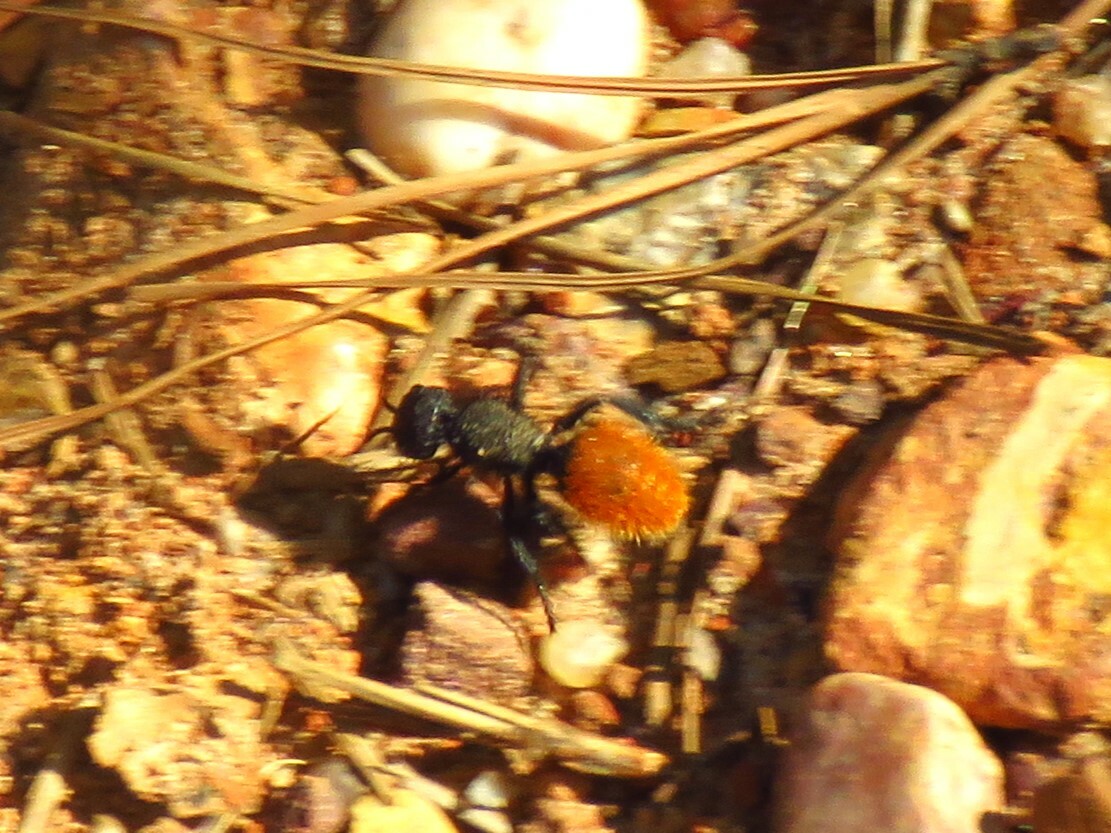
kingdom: Animalia
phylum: Arthropoda
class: Insecta
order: Hymenoptera
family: Mutillidae
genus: Dasymutilla
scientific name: Dasymutilla gorgon
